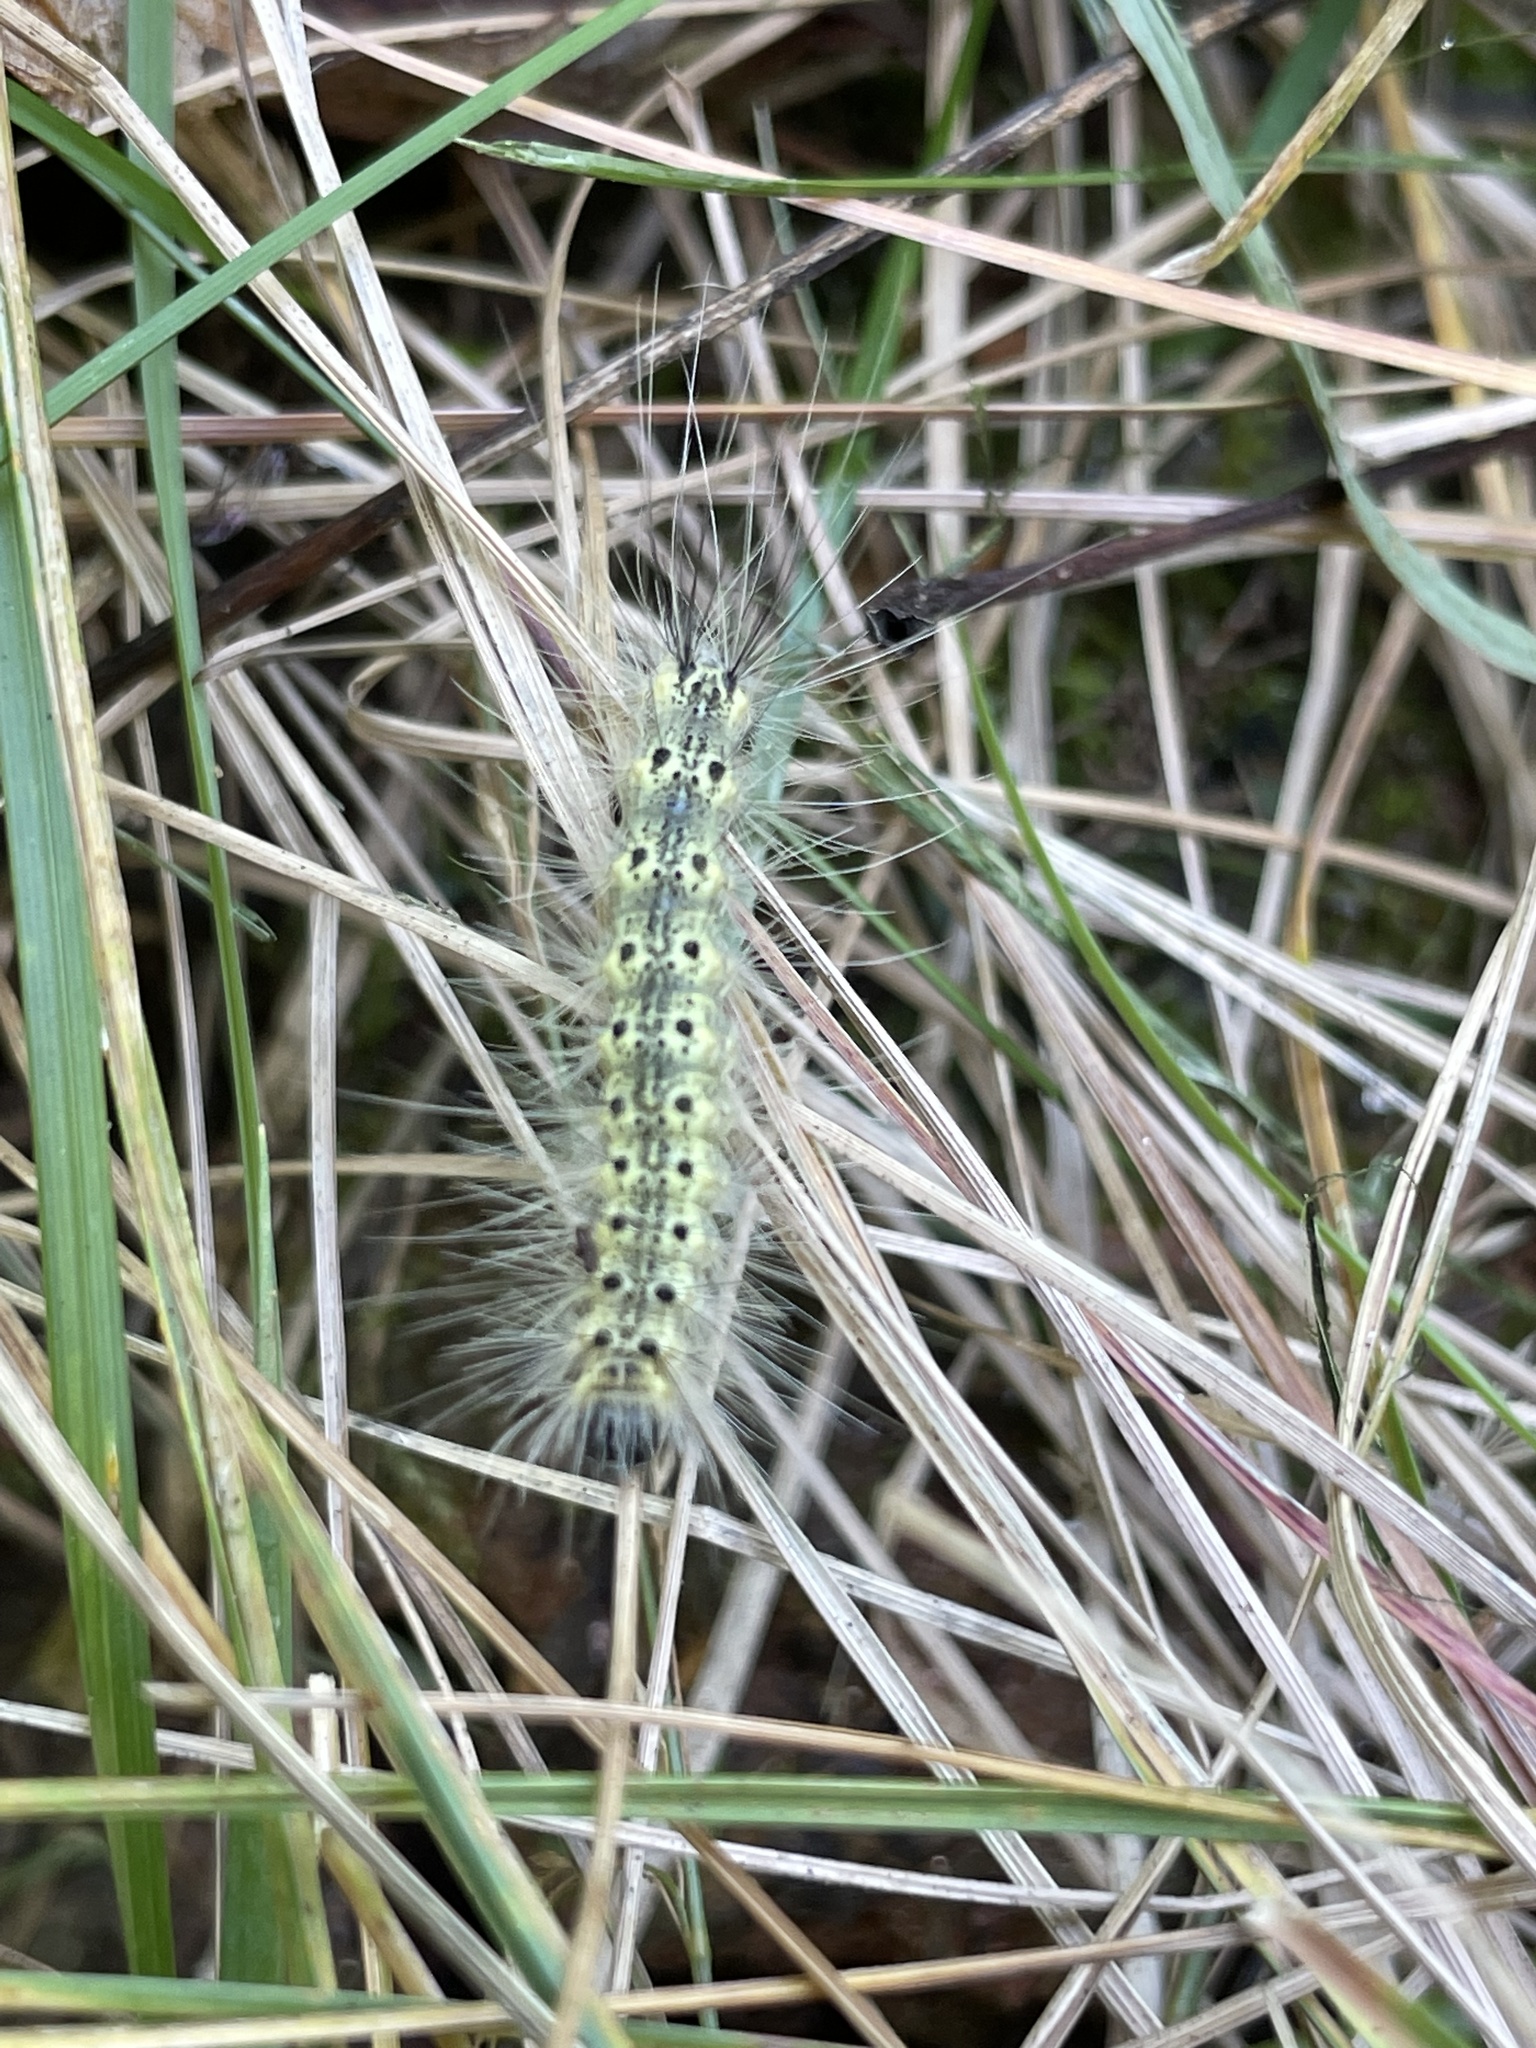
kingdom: Animalia
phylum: Arthropoda
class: Insecta
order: Lepidoptera
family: Erebidae
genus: Hyphantria
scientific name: Hyphantria cunea
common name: American white moth
